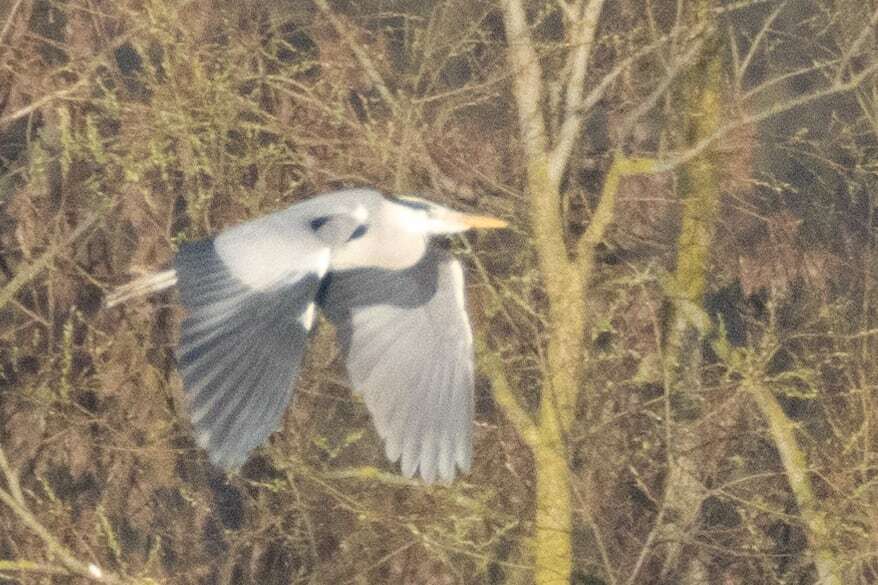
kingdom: Animalia
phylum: Chordata
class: Aves
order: Pelecaniformes
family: Ardeidae
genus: Ardea
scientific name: Ardea cinerea
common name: Grey heron
